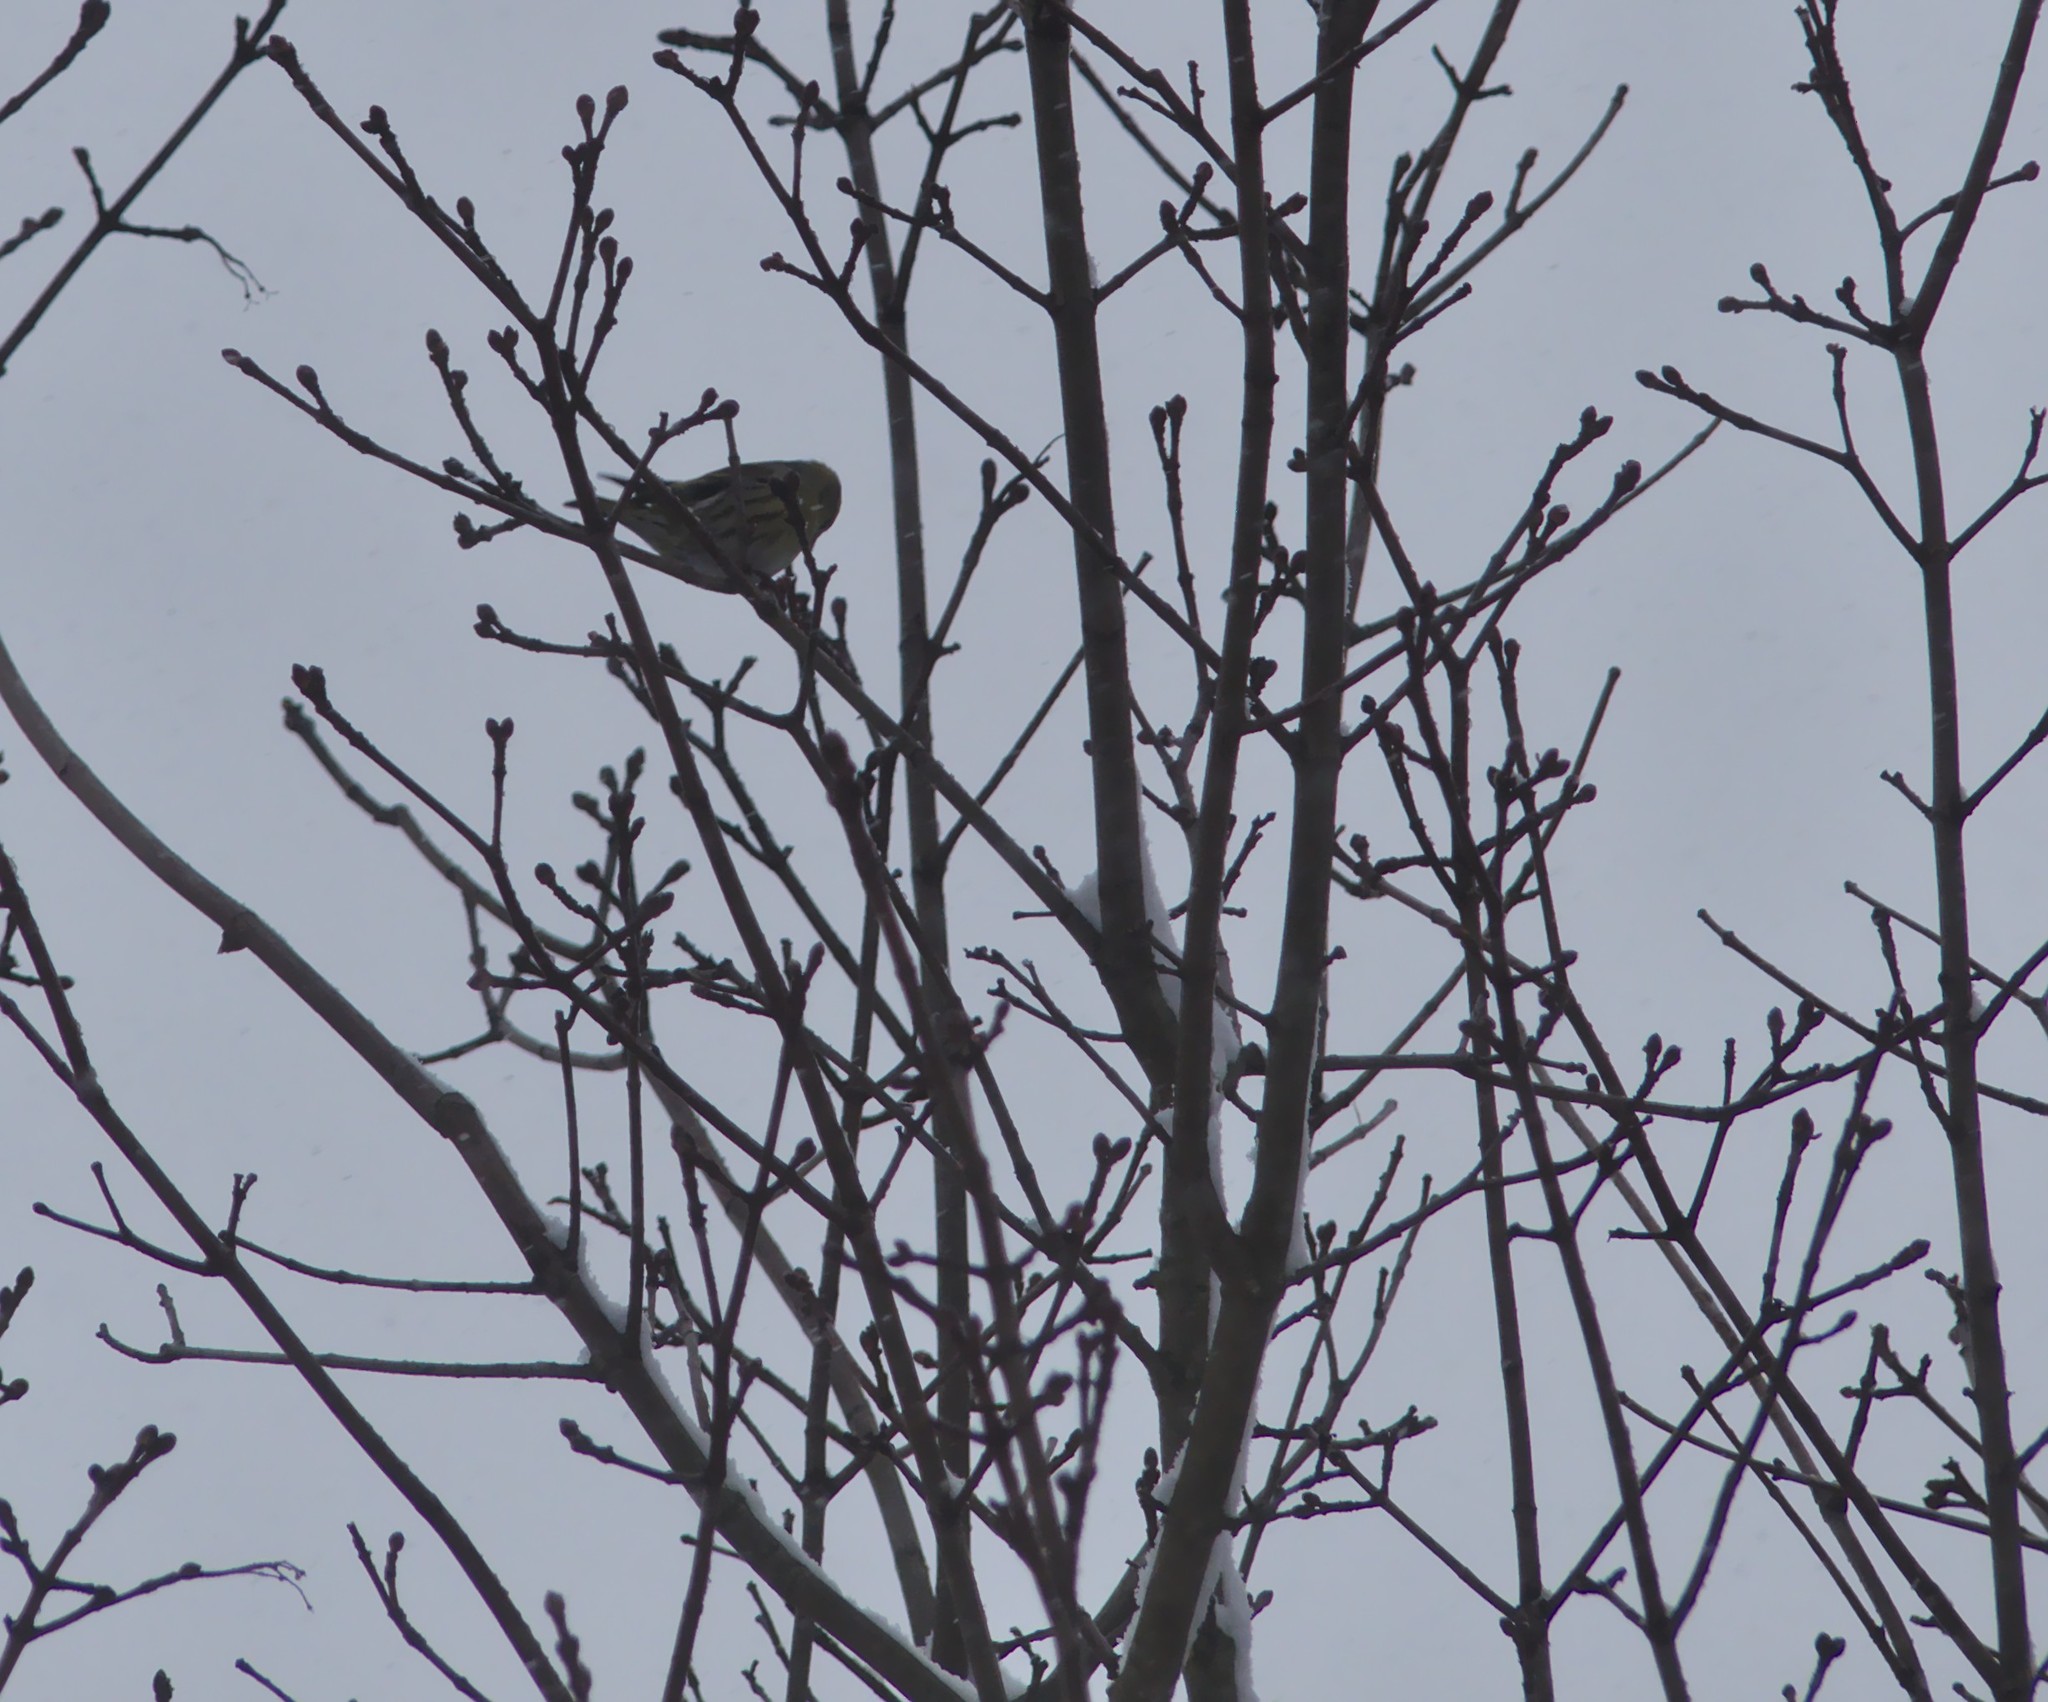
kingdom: Animalia
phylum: Chordata
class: Aves
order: Passeriformes
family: Fringillidae
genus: Spinus
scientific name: Spinus spinus
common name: Eurasian siskin
